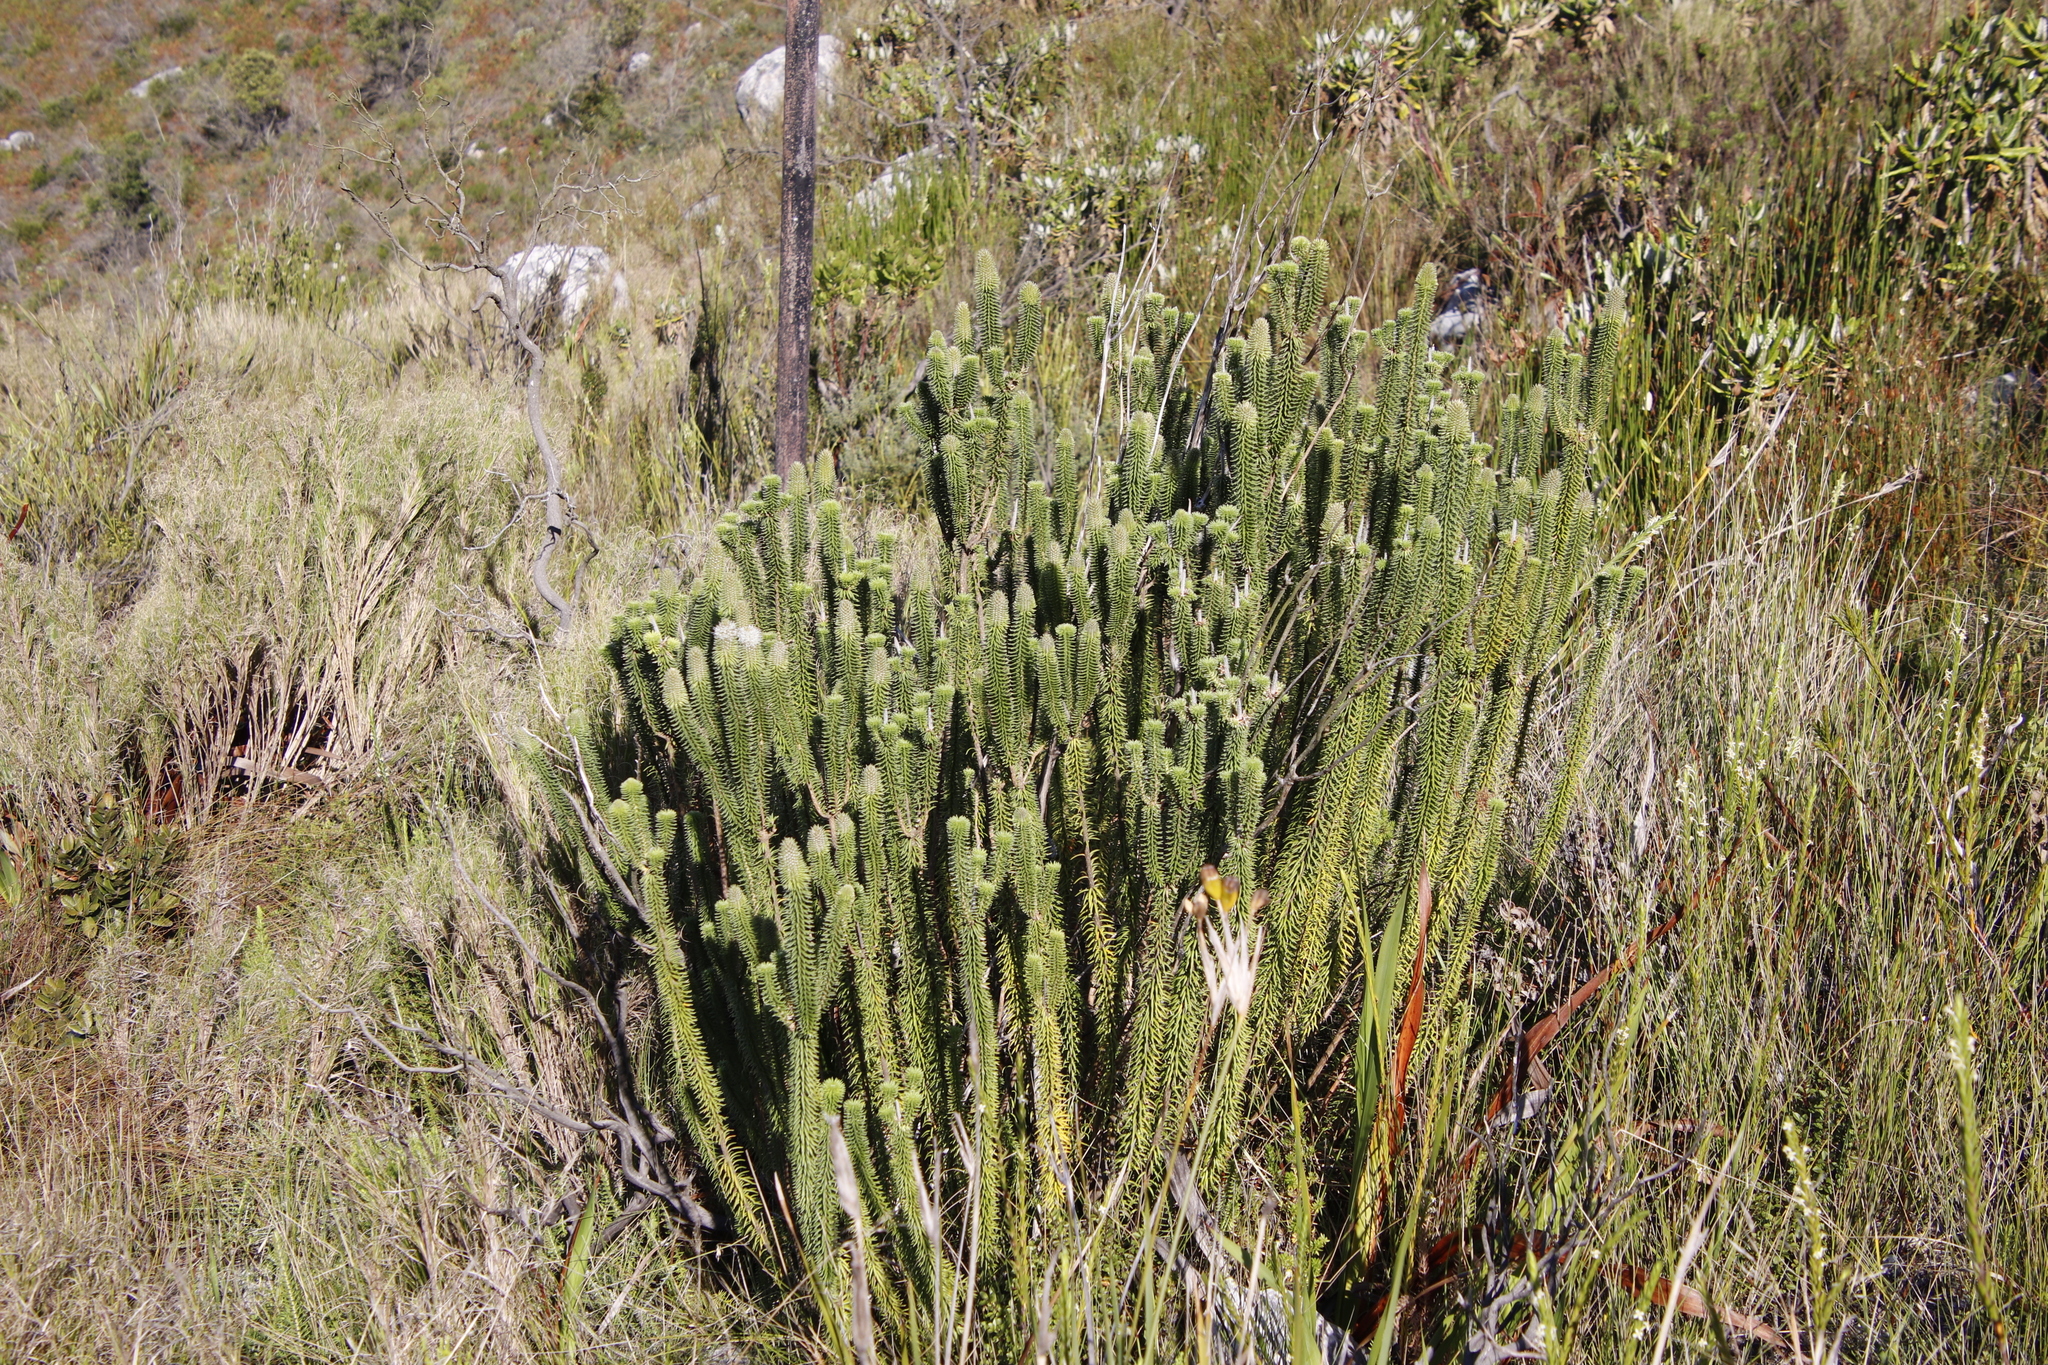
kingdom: Plantae
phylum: Tracheophyta
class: Magnoliopsida
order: Lamiales
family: Stilbaceae
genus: Stilbe
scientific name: Stilbe vestita
